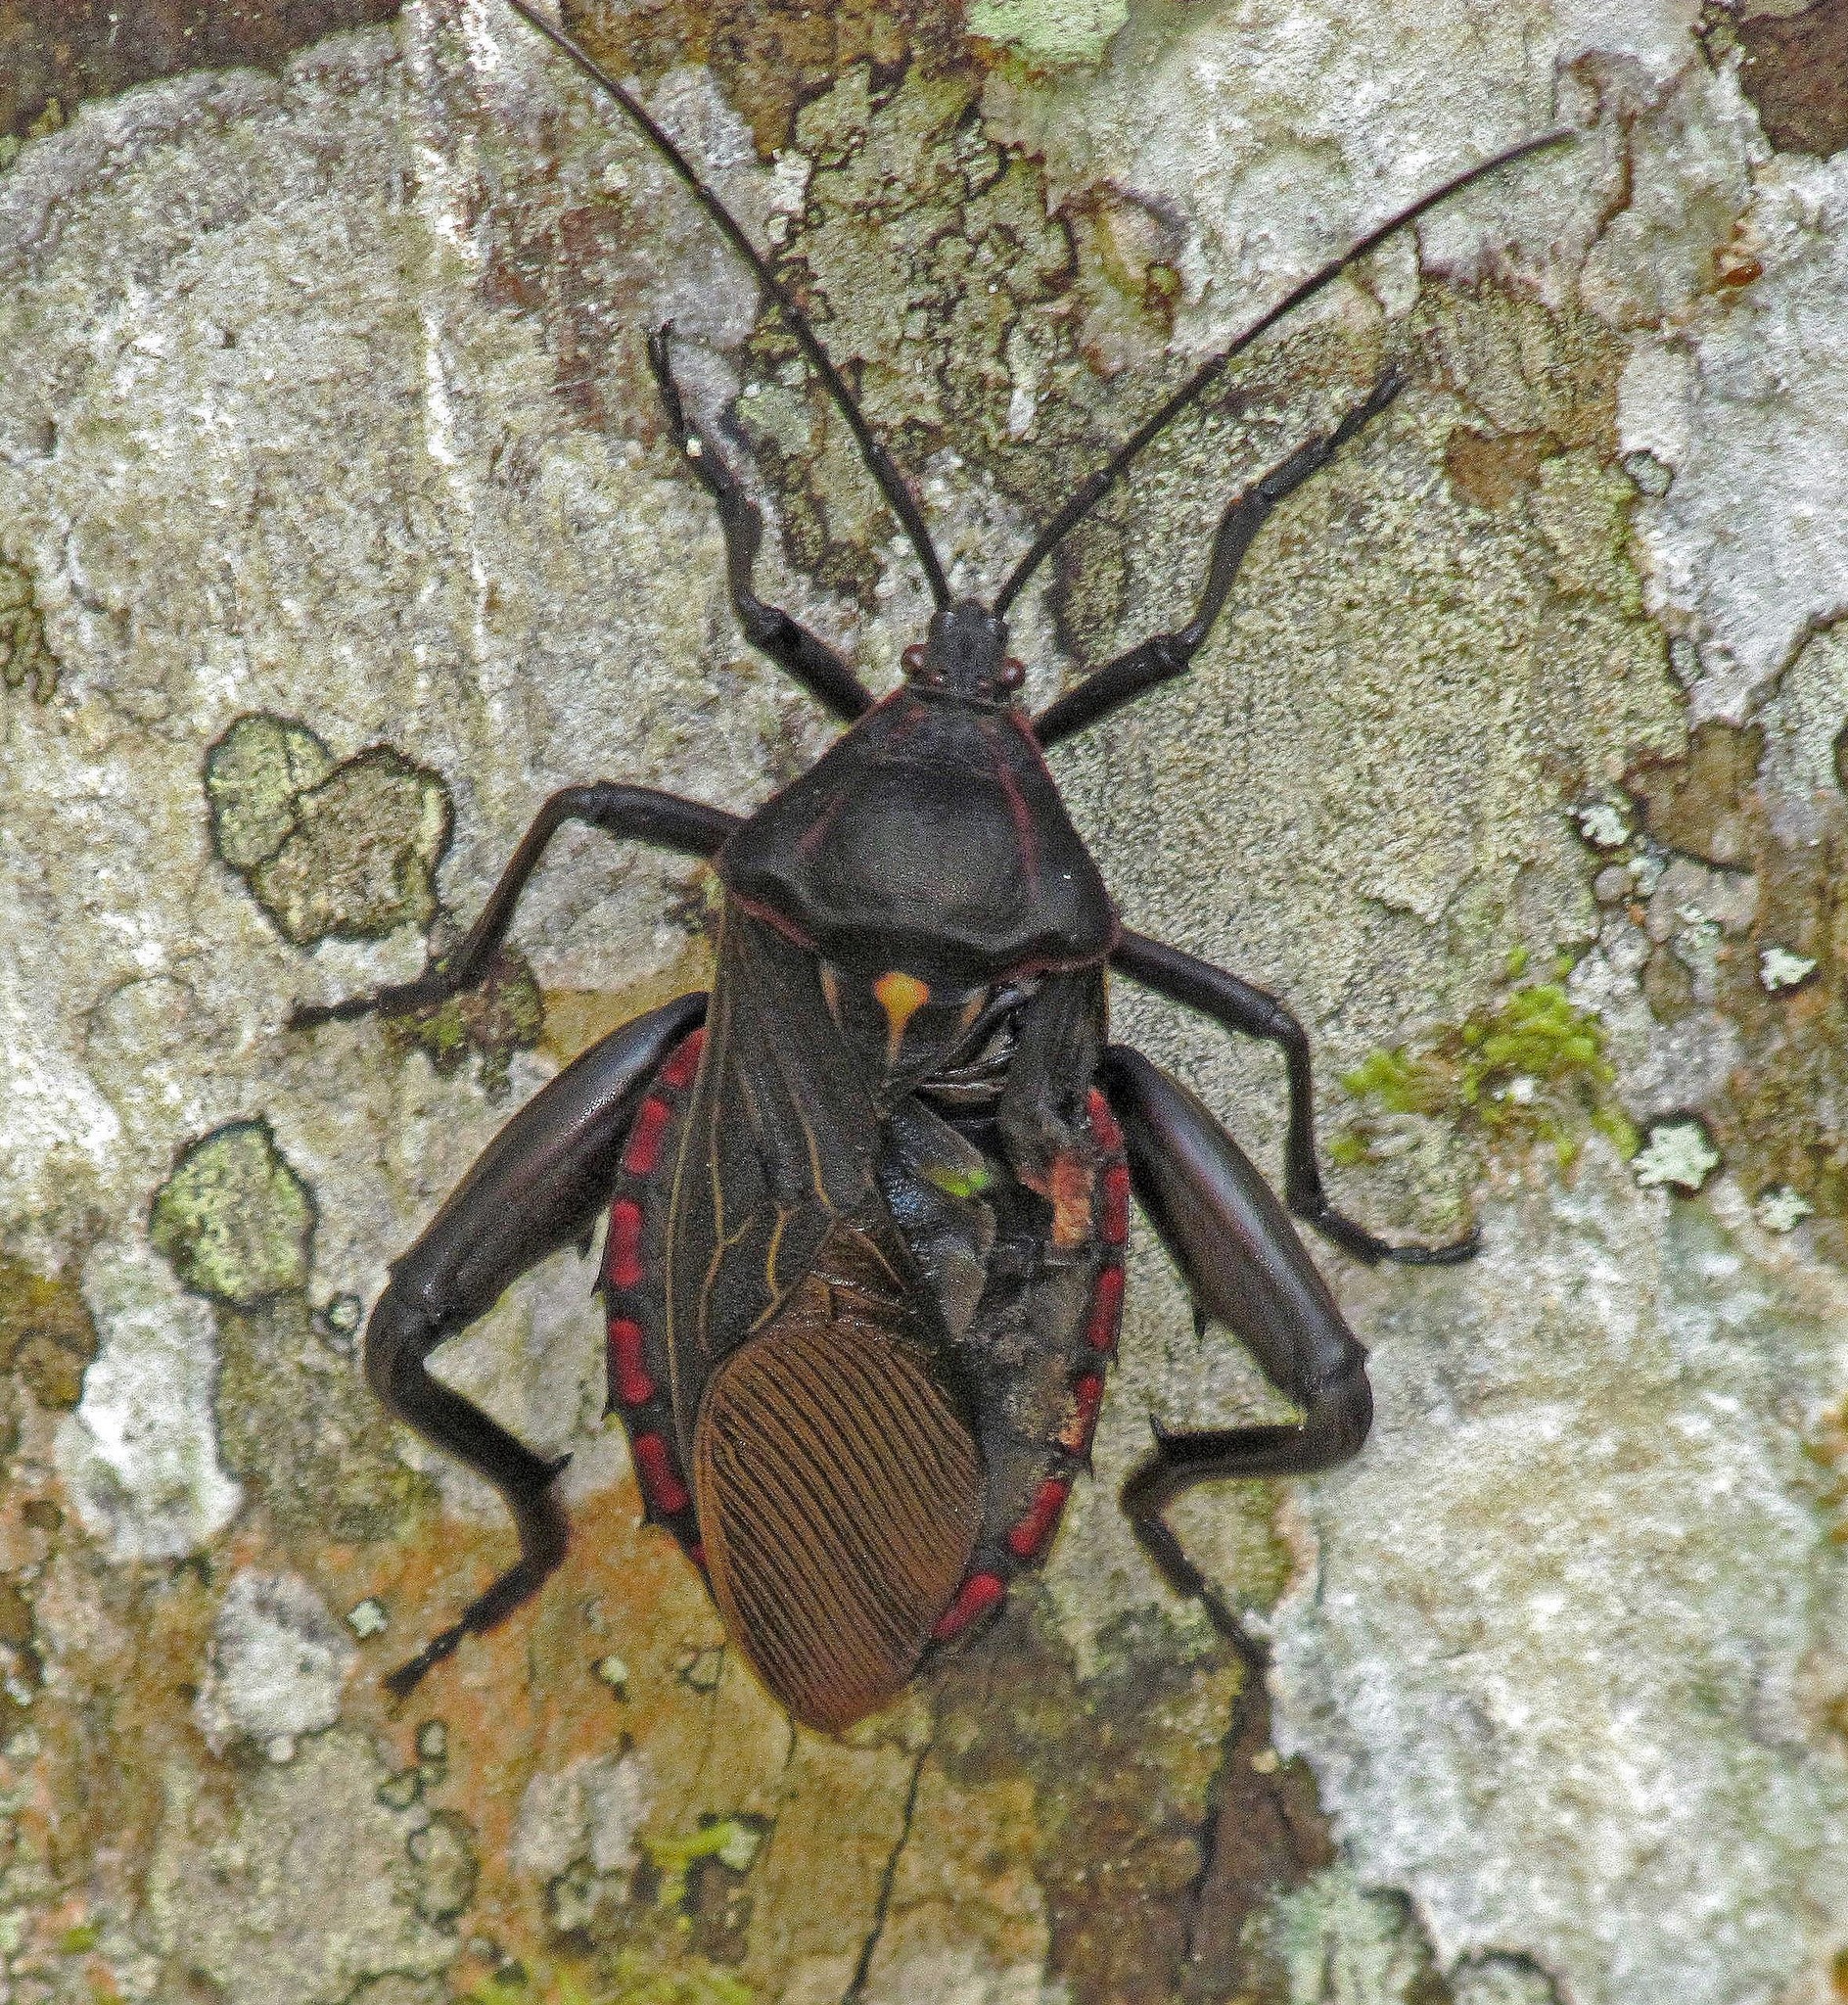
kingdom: Animalia
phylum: Arthropoda
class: Insecta
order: Hemiptera
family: Coreidae
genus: Pachylis
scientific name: Pachylis pharaonis
